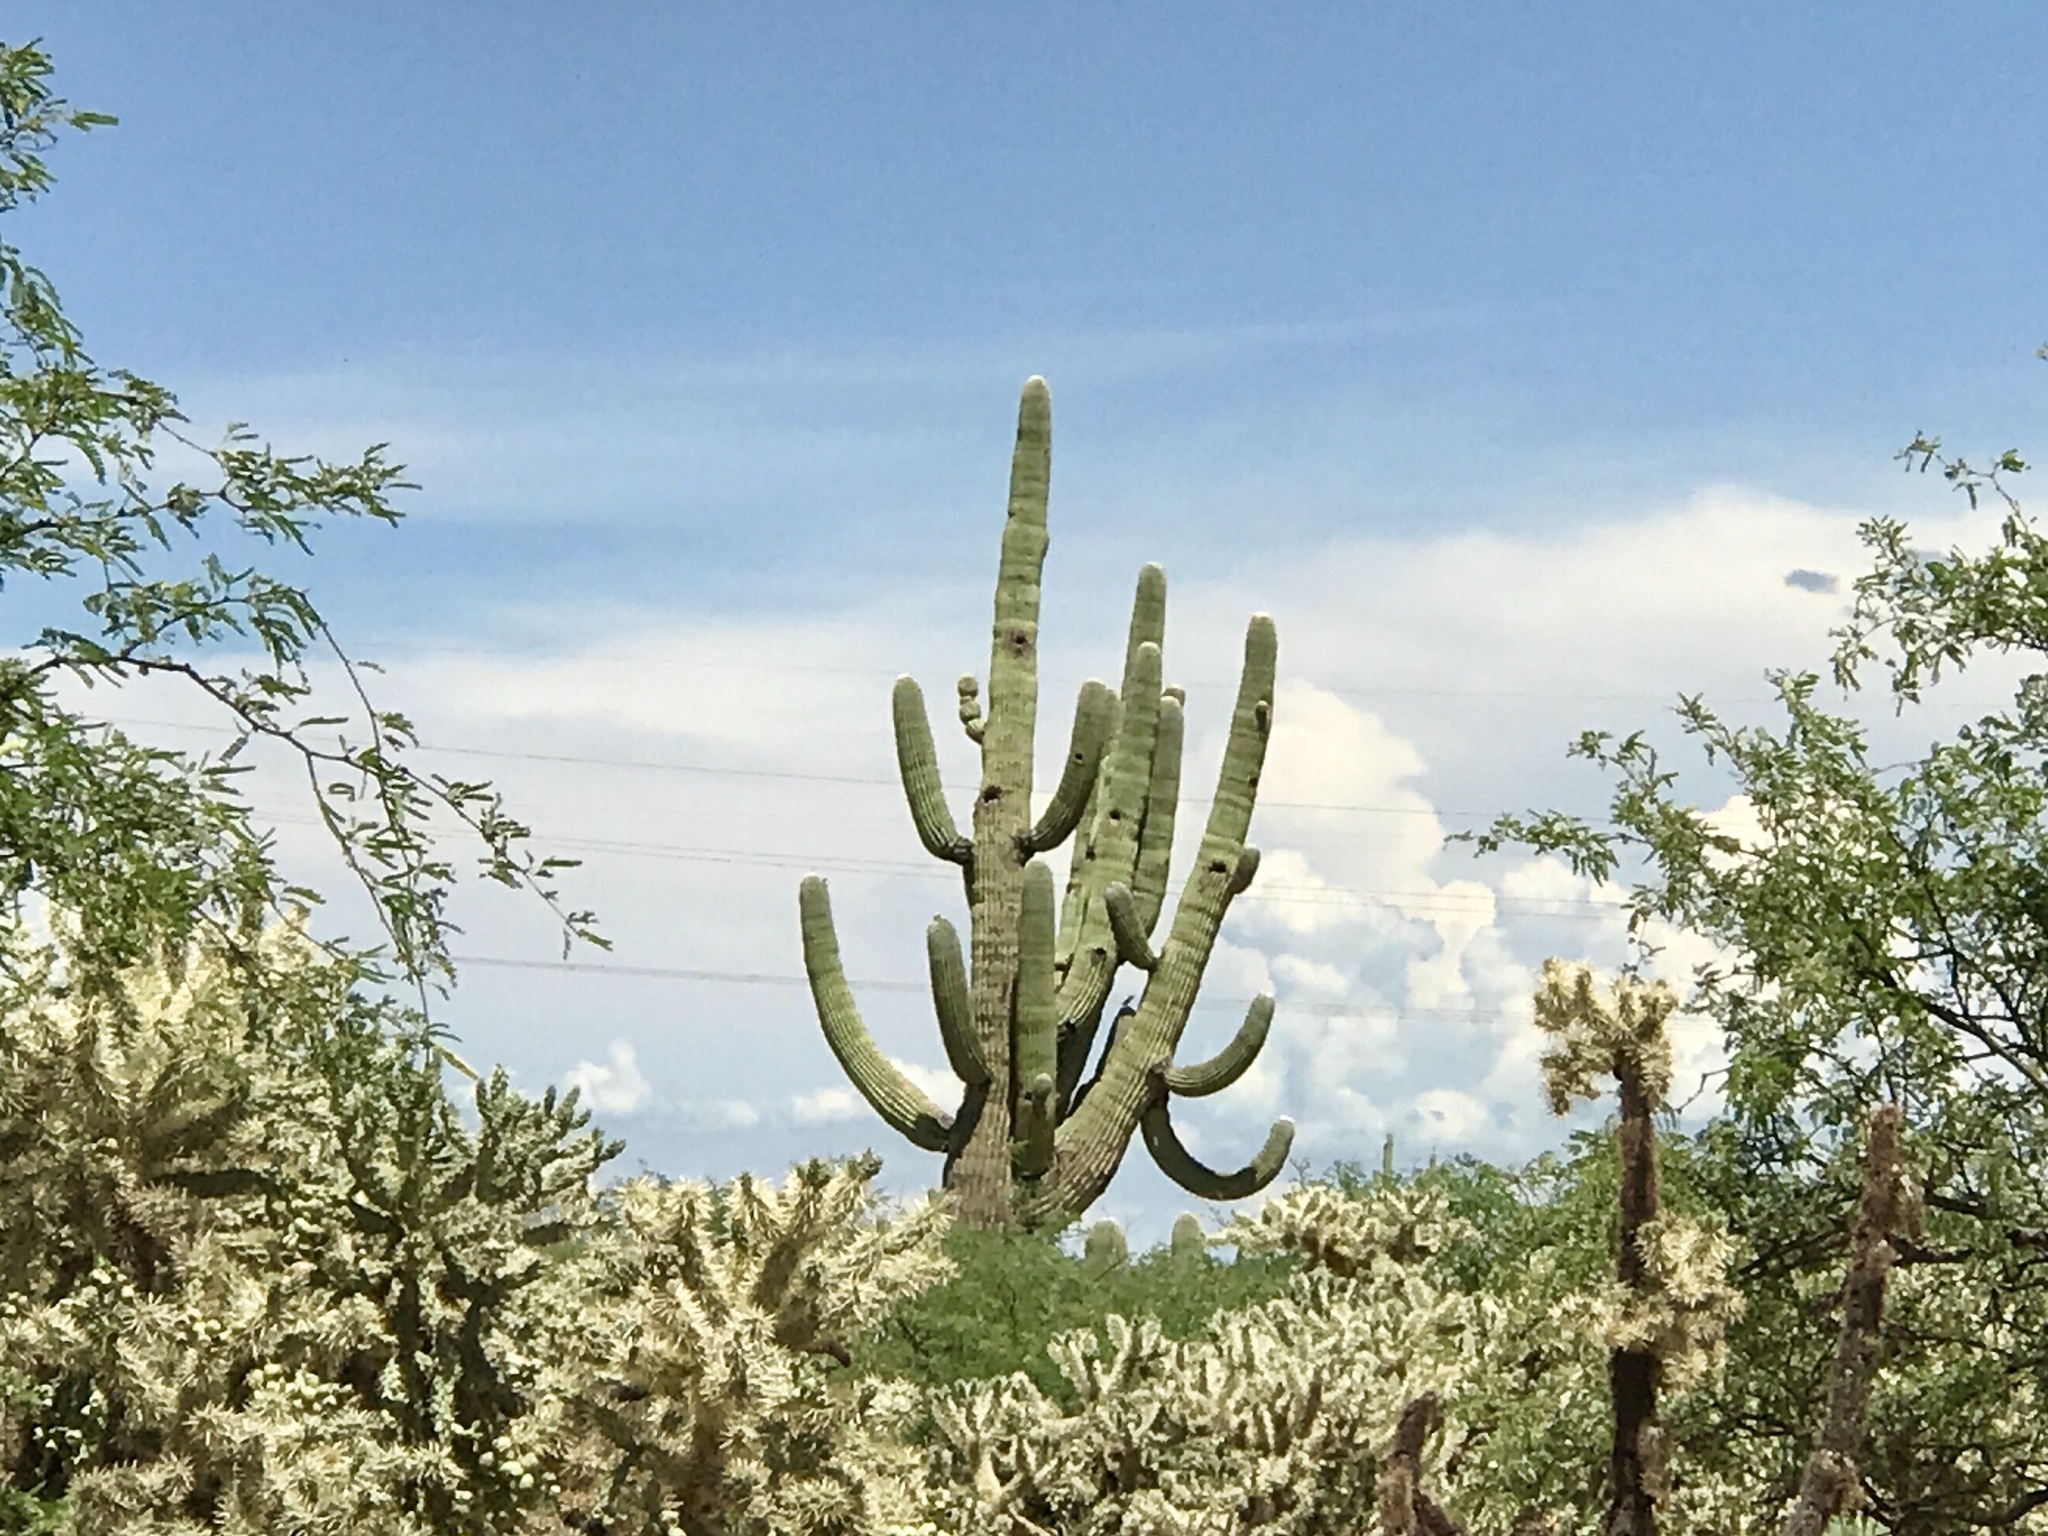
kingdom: Plantae
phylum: Tracheophyta
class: Magnoliopsida
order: Caryophyllales
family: Cactaceae
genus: Carnegiea
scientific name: Carnegiea gigantea
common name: Saguaro
